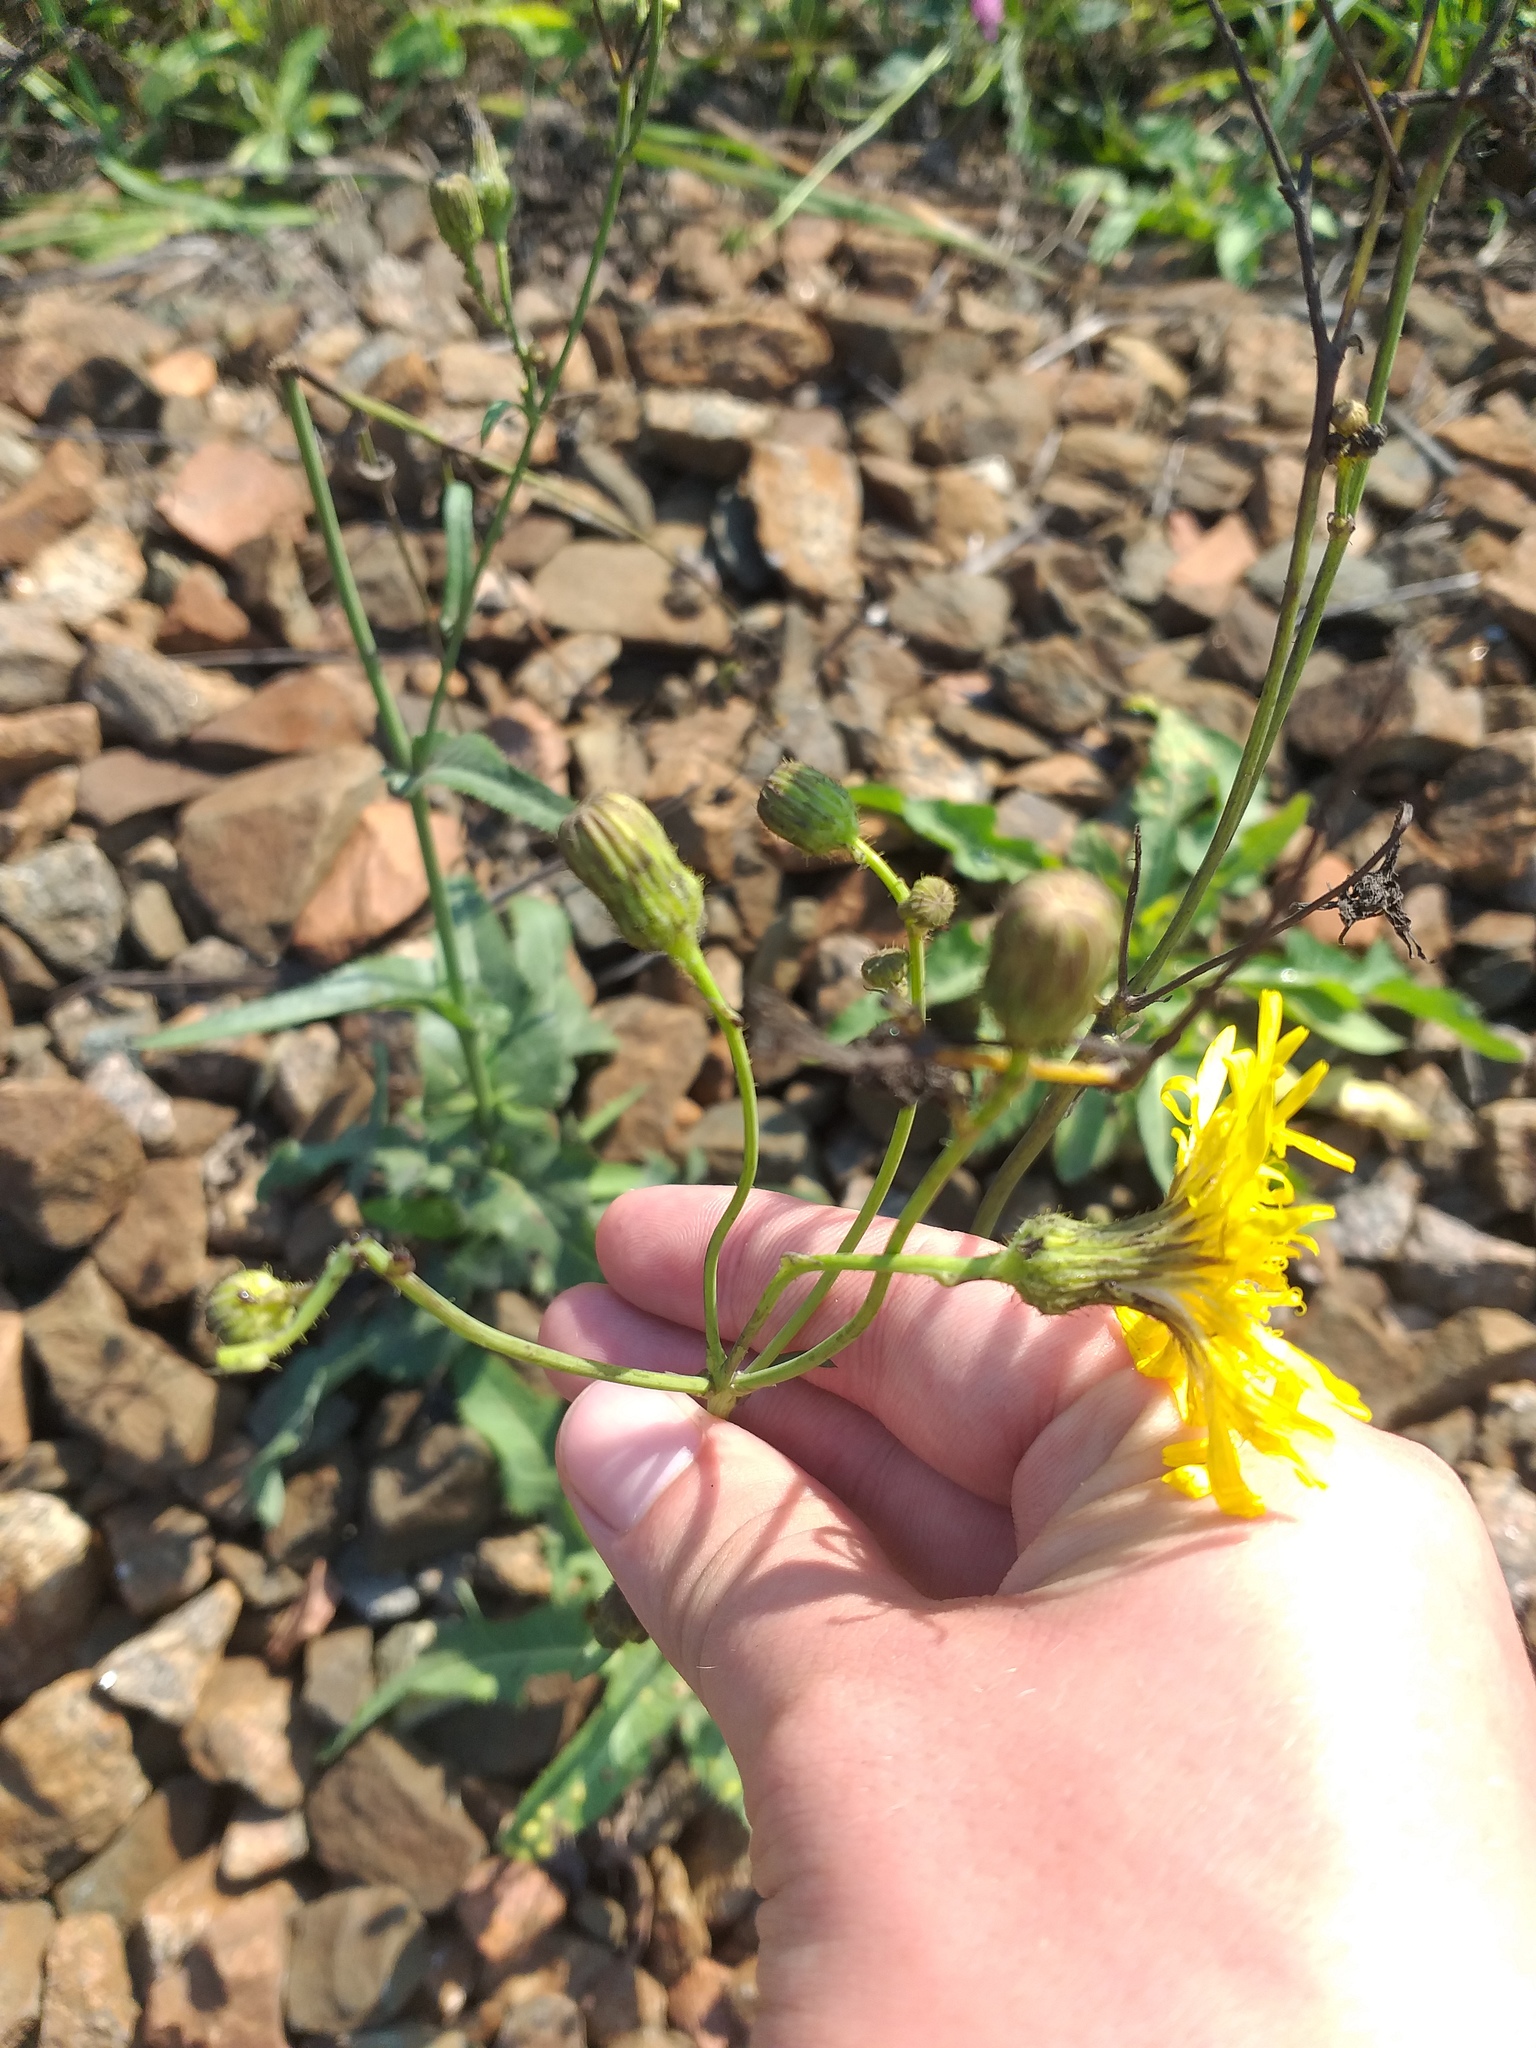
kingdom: Plantae
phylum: Tracheophyta
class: Magnoliopsida
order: Asterales
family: Asteraceae
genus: Sonchus
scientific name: Sonchus arvensis
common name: Perennial sow-thistle
